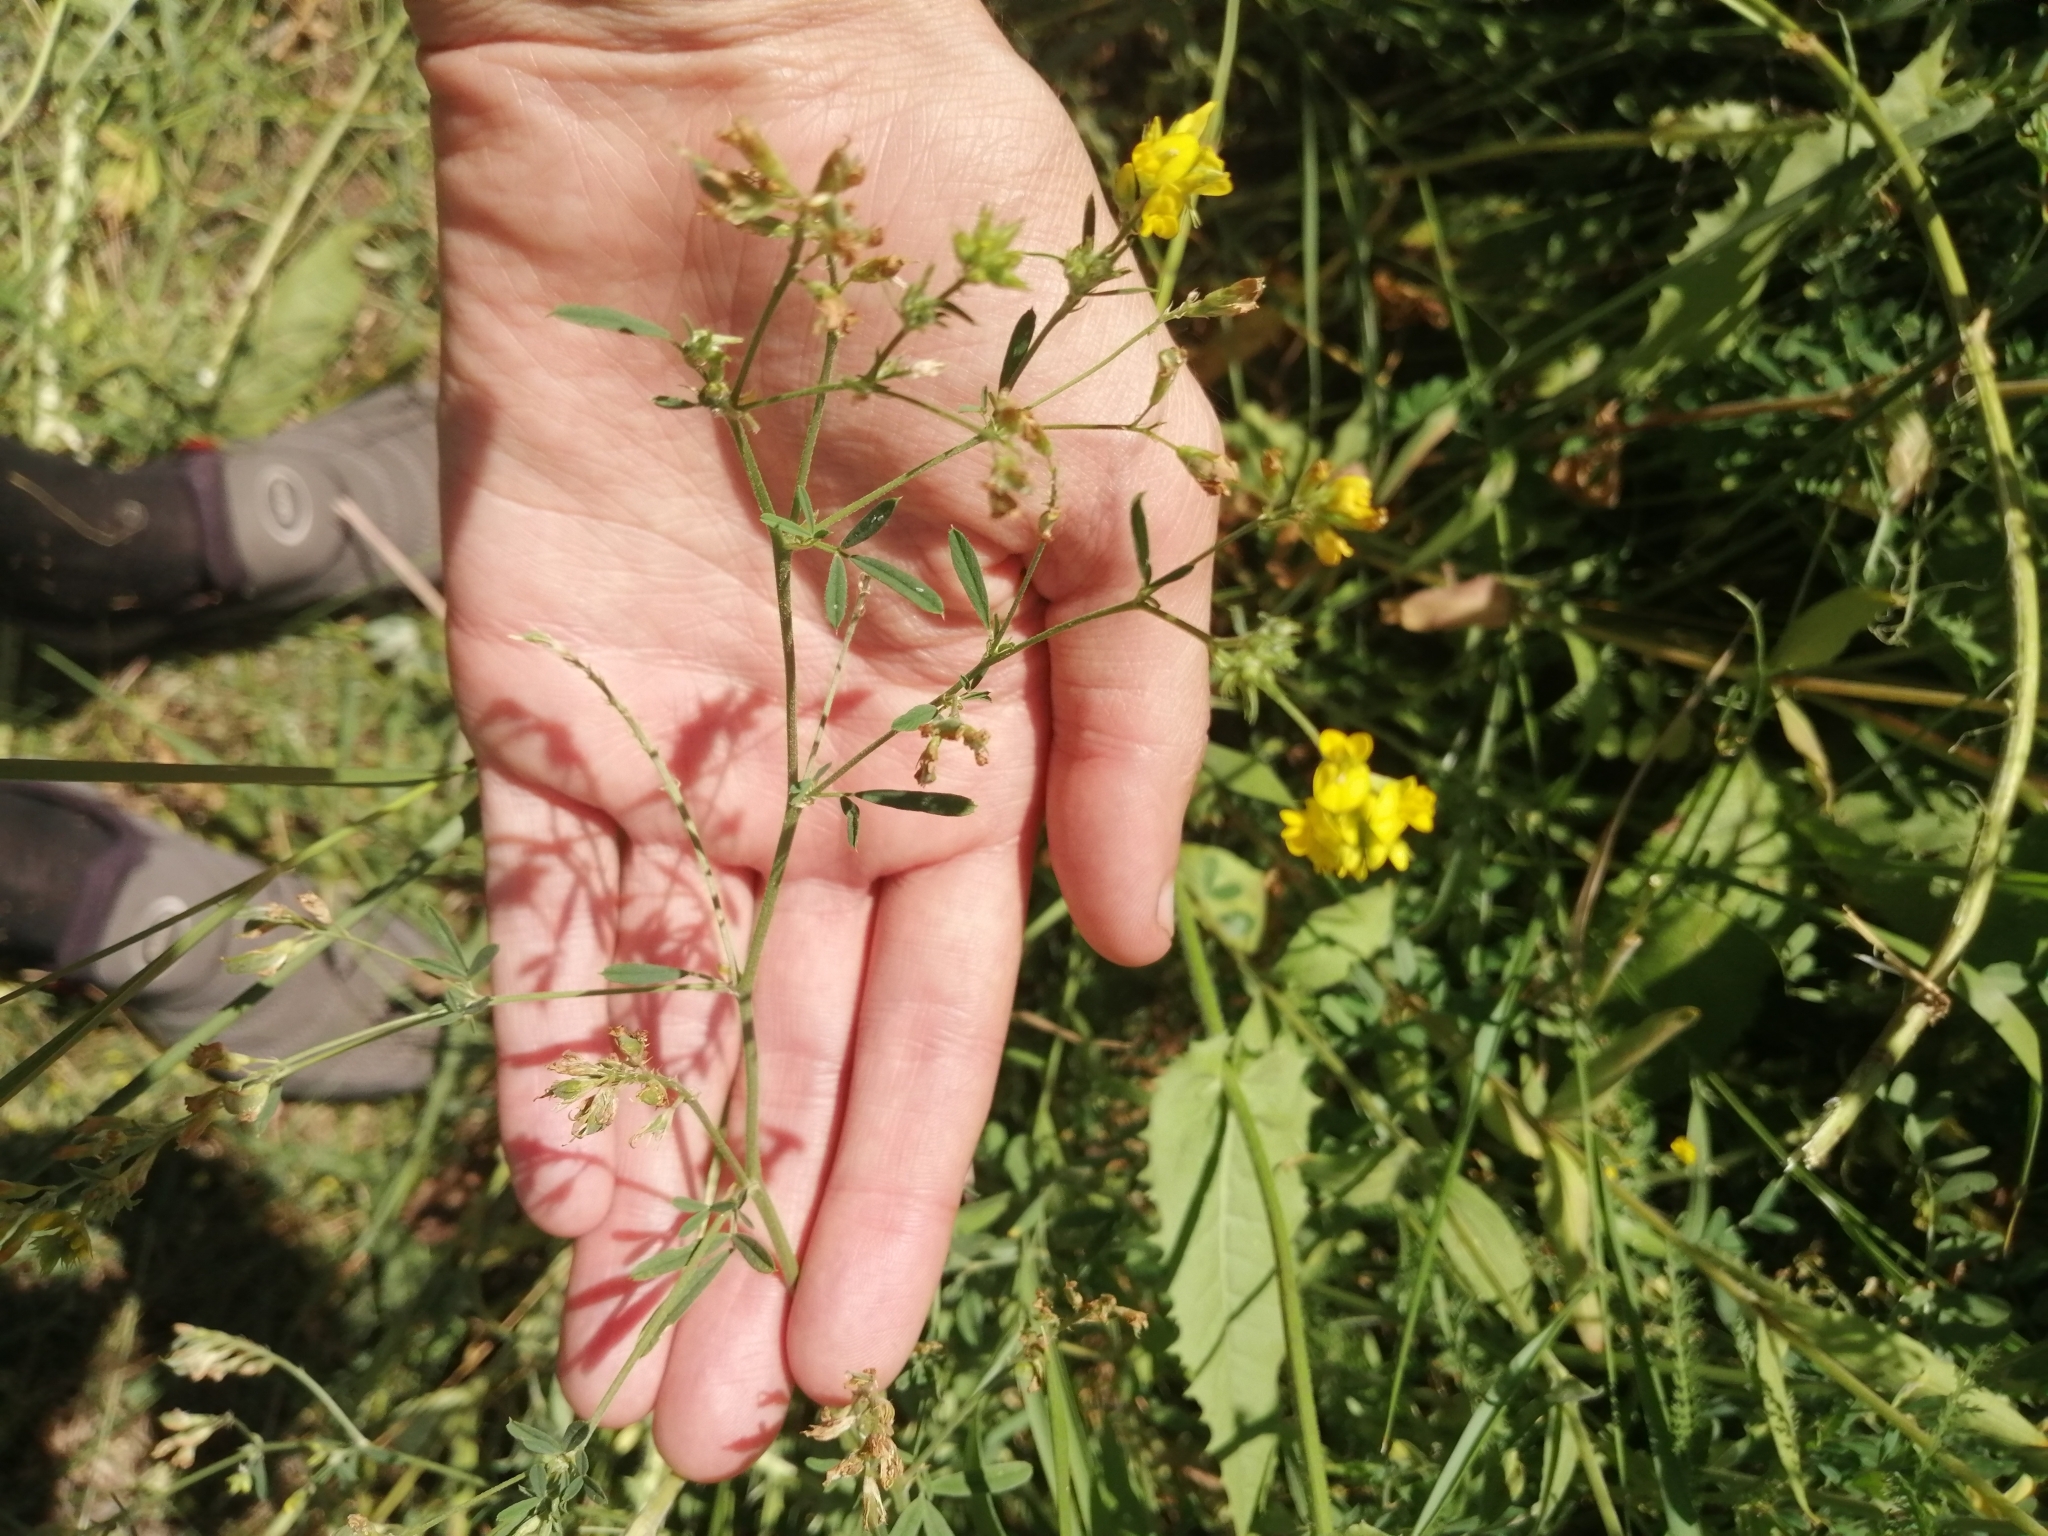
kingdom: Plantae
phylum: Tracheophyta
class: Magnoliopsida
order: Fabales
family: Fabaceae
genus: Medicago
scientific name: Medicago falcata
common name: Sickle medick
